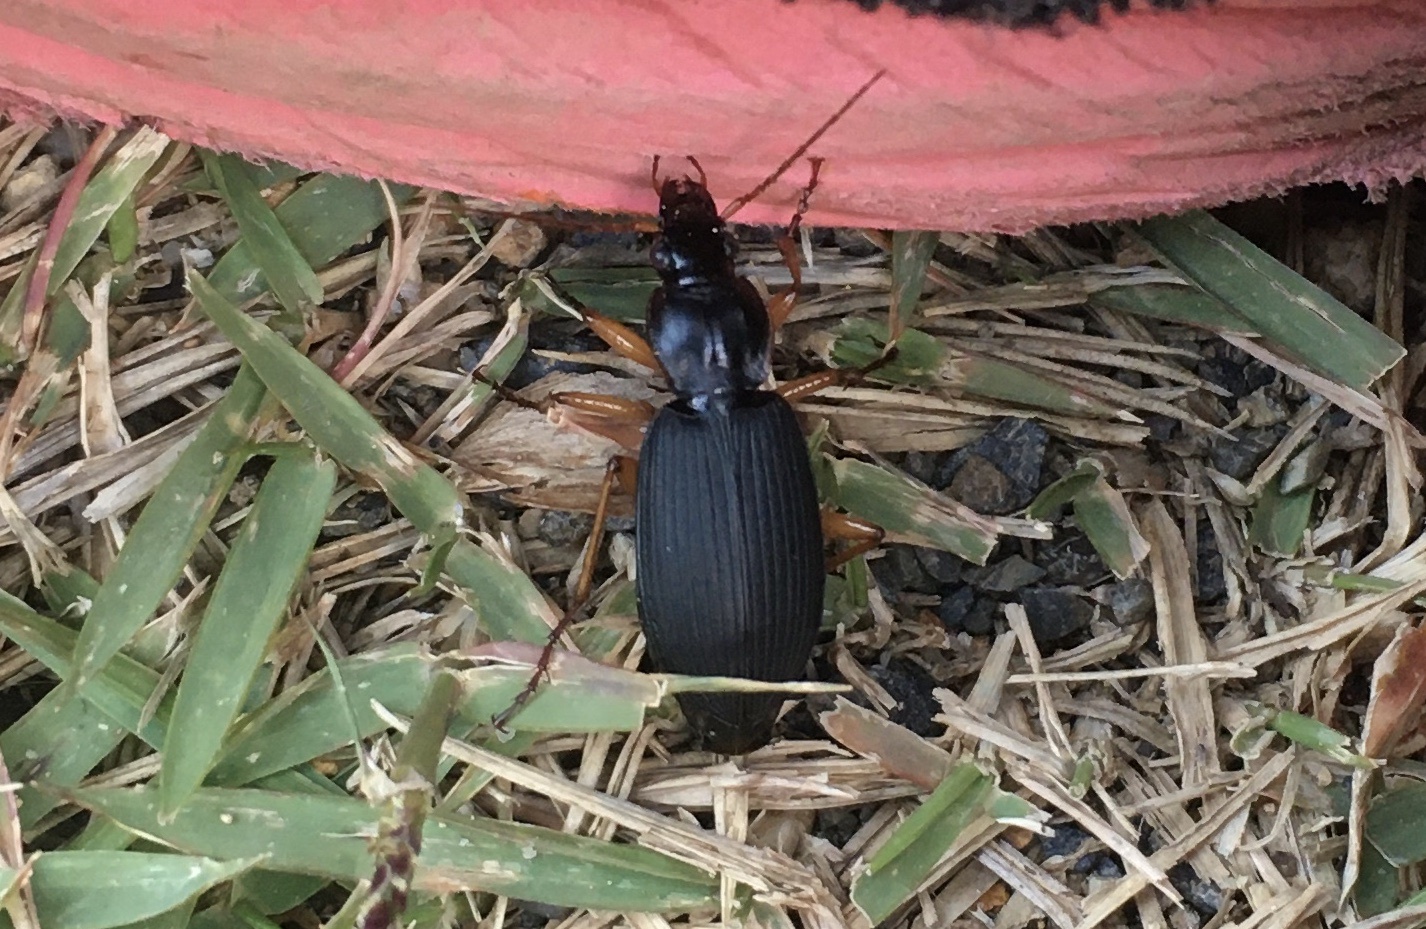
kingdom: Animalia
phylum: Arthropoda
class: Insecta
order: Coleoptera
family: Carabidae
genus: Dolichus
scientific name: Dolichus halensis
